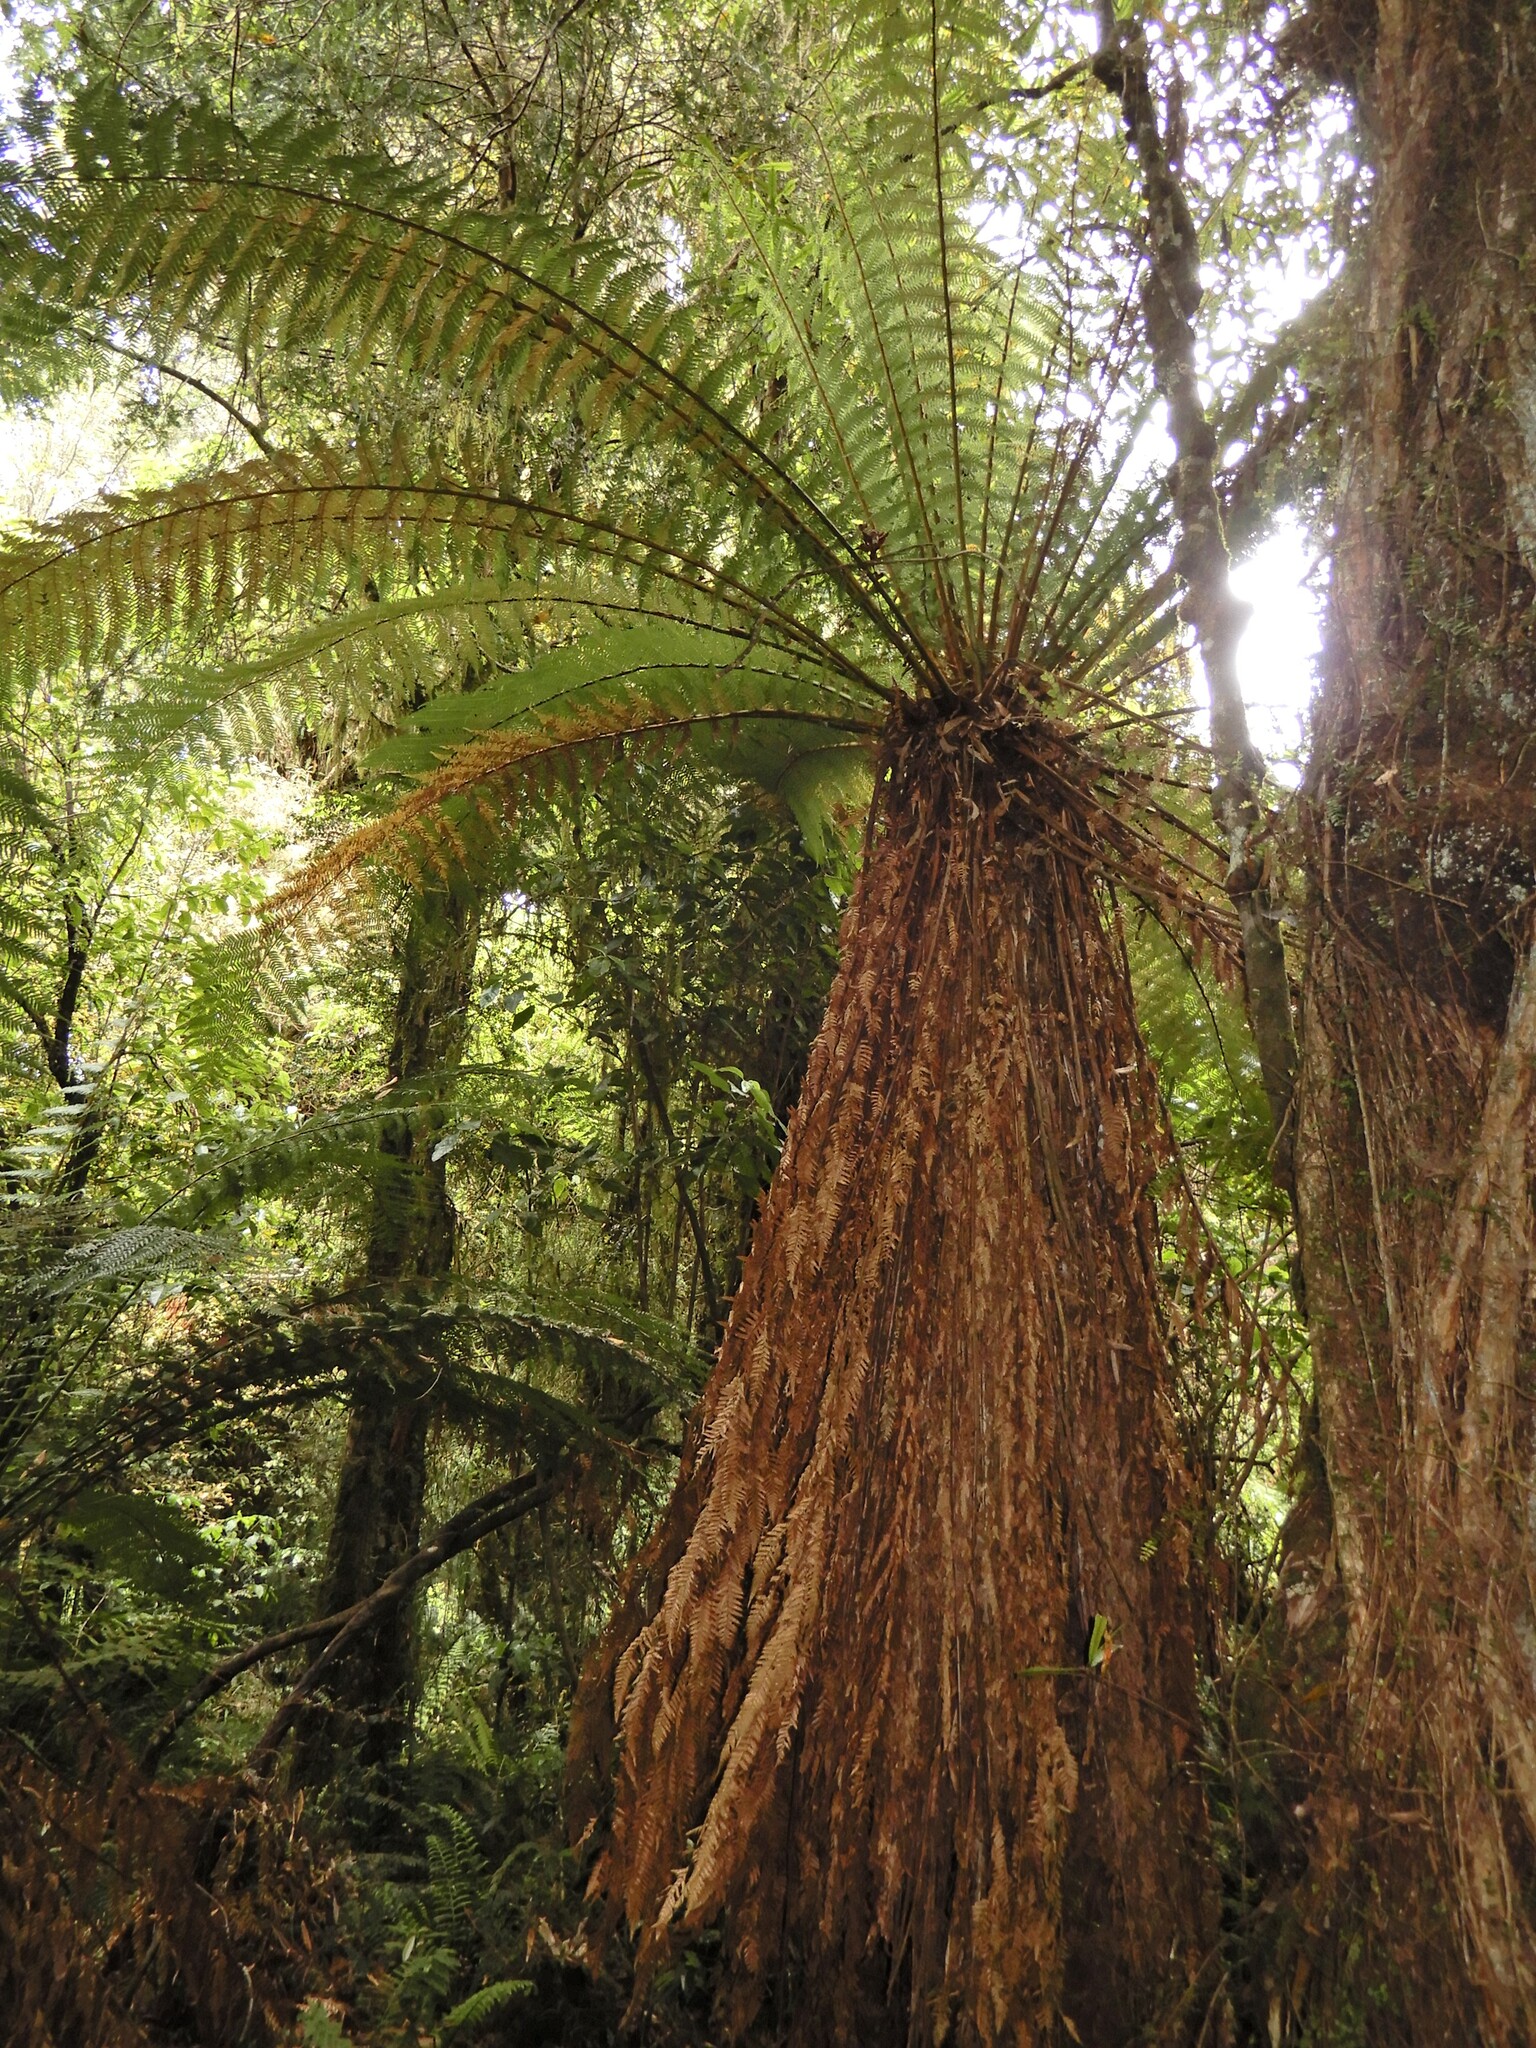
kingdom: Plantae
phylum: Tracheophyta
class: Polypodiopsida
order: Cyatheales
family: Dicksoniaceae
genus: Dicksonia
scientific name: Dicksonia fibrosa
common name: Golden tree fern
